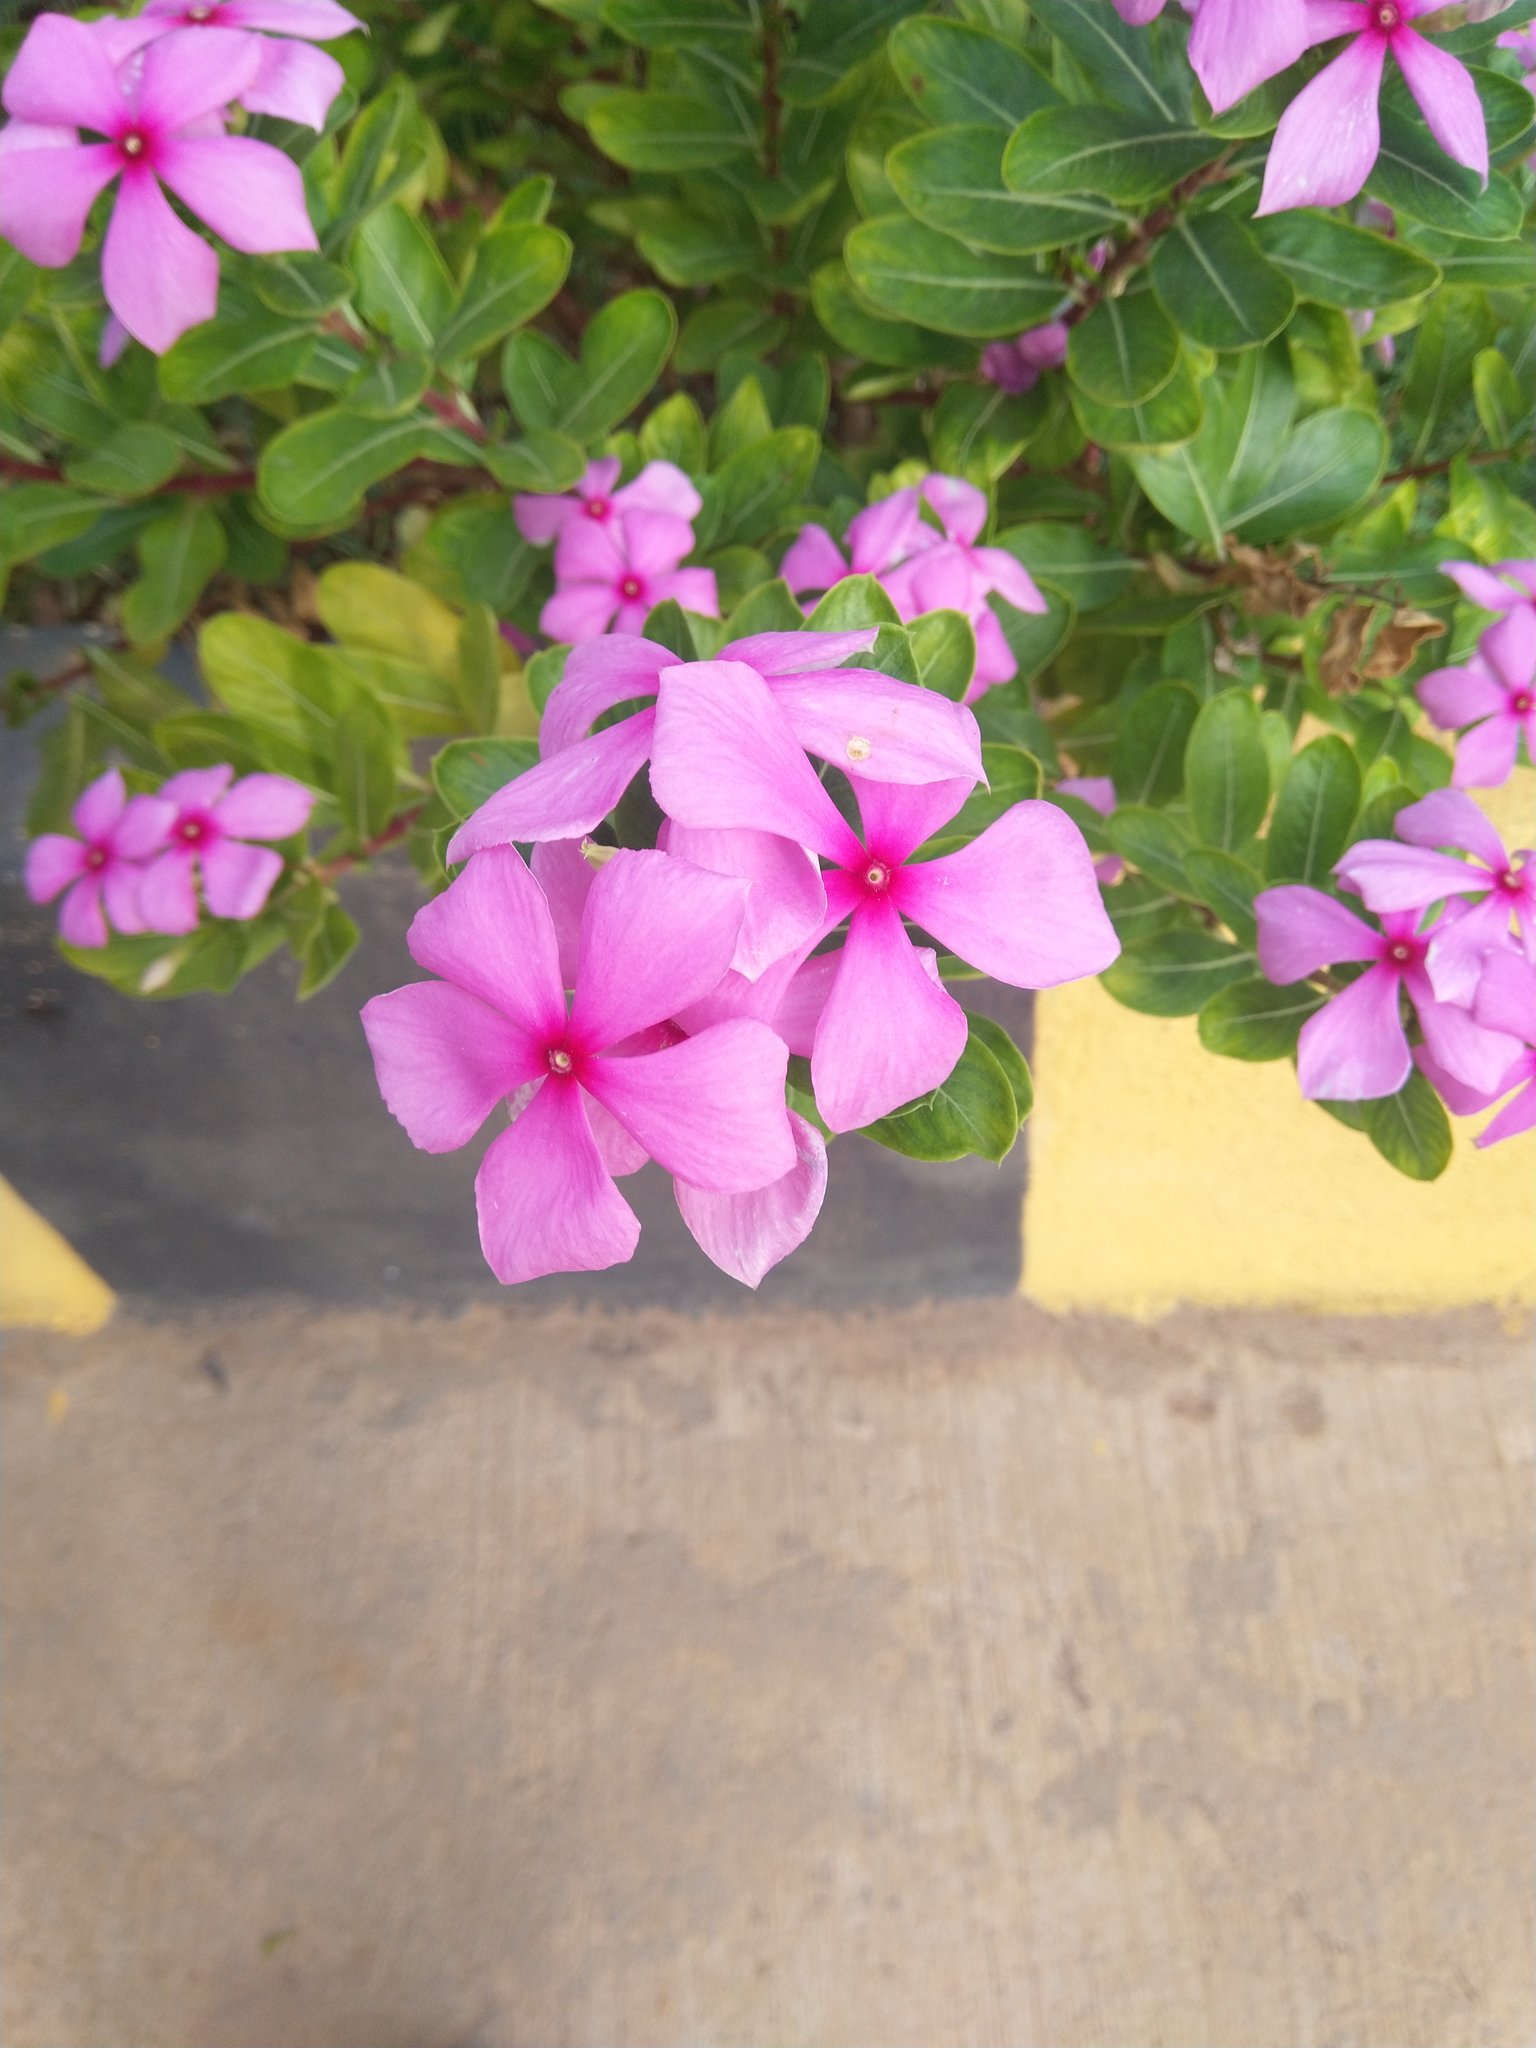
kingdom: Plantae
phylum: Tracheophyta
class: Magnoliopsida
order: Gentianales
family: Apocynaceae
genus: Catharanthus
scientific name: Catharanthus roseus
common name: Madagascar periwinkle
